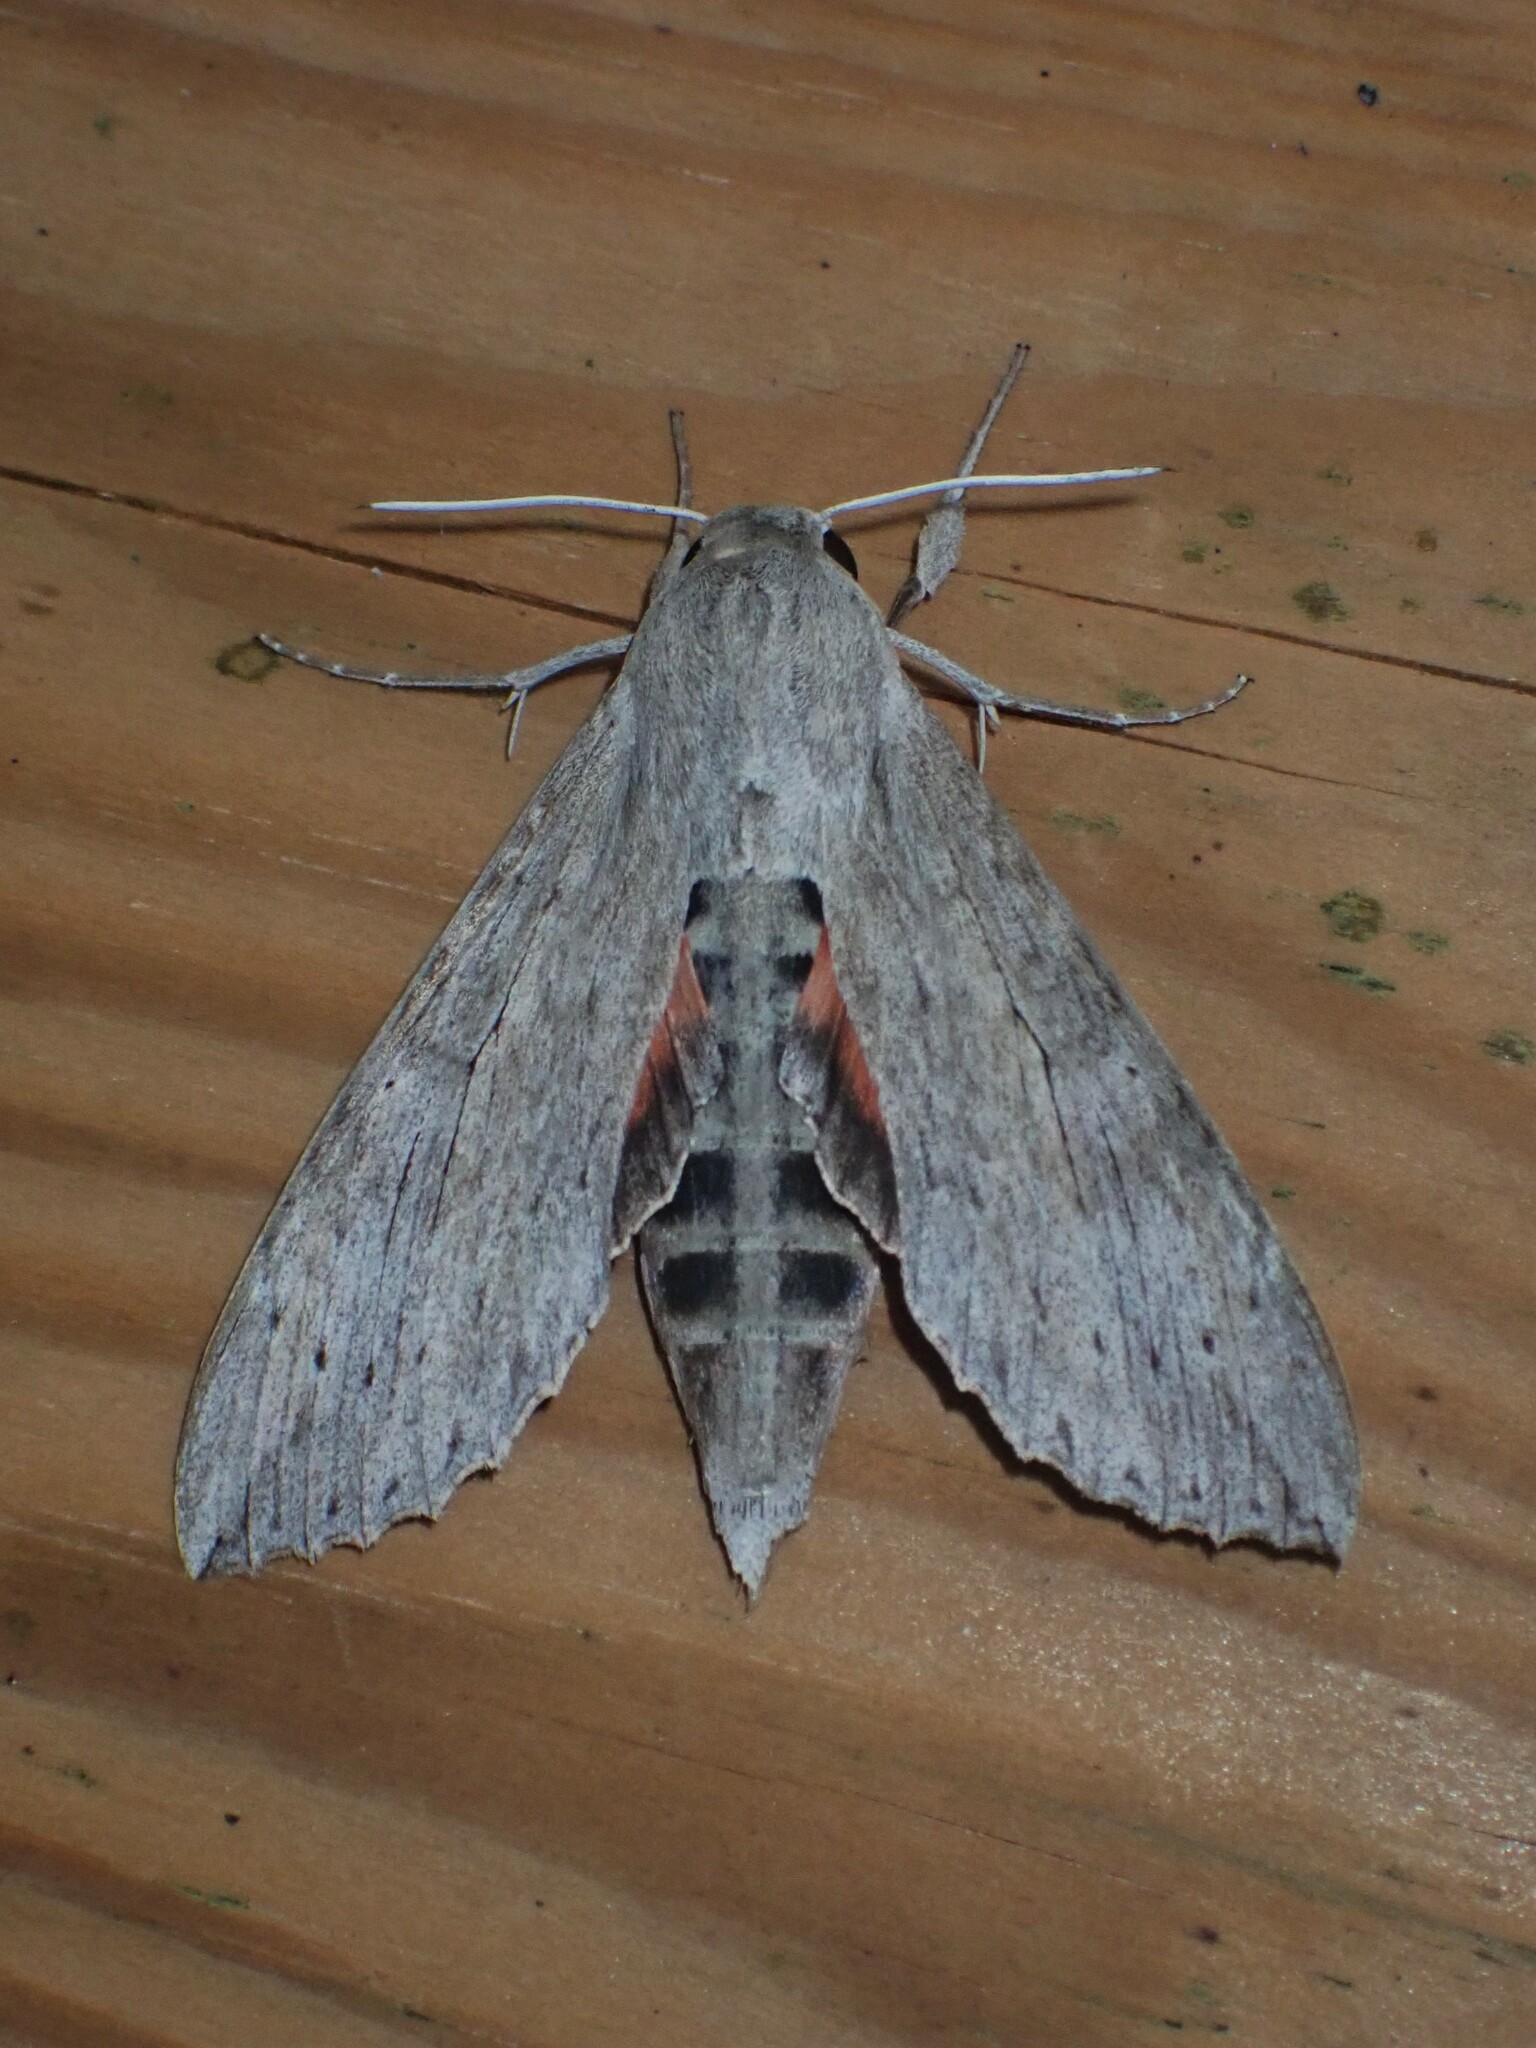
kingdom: Animalia
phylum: Arthropoda
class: Insecta
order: Lepidoptera
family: Sphingidae
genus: Erinnyis
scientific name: Erinnyis ello
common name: Ello sphinx
